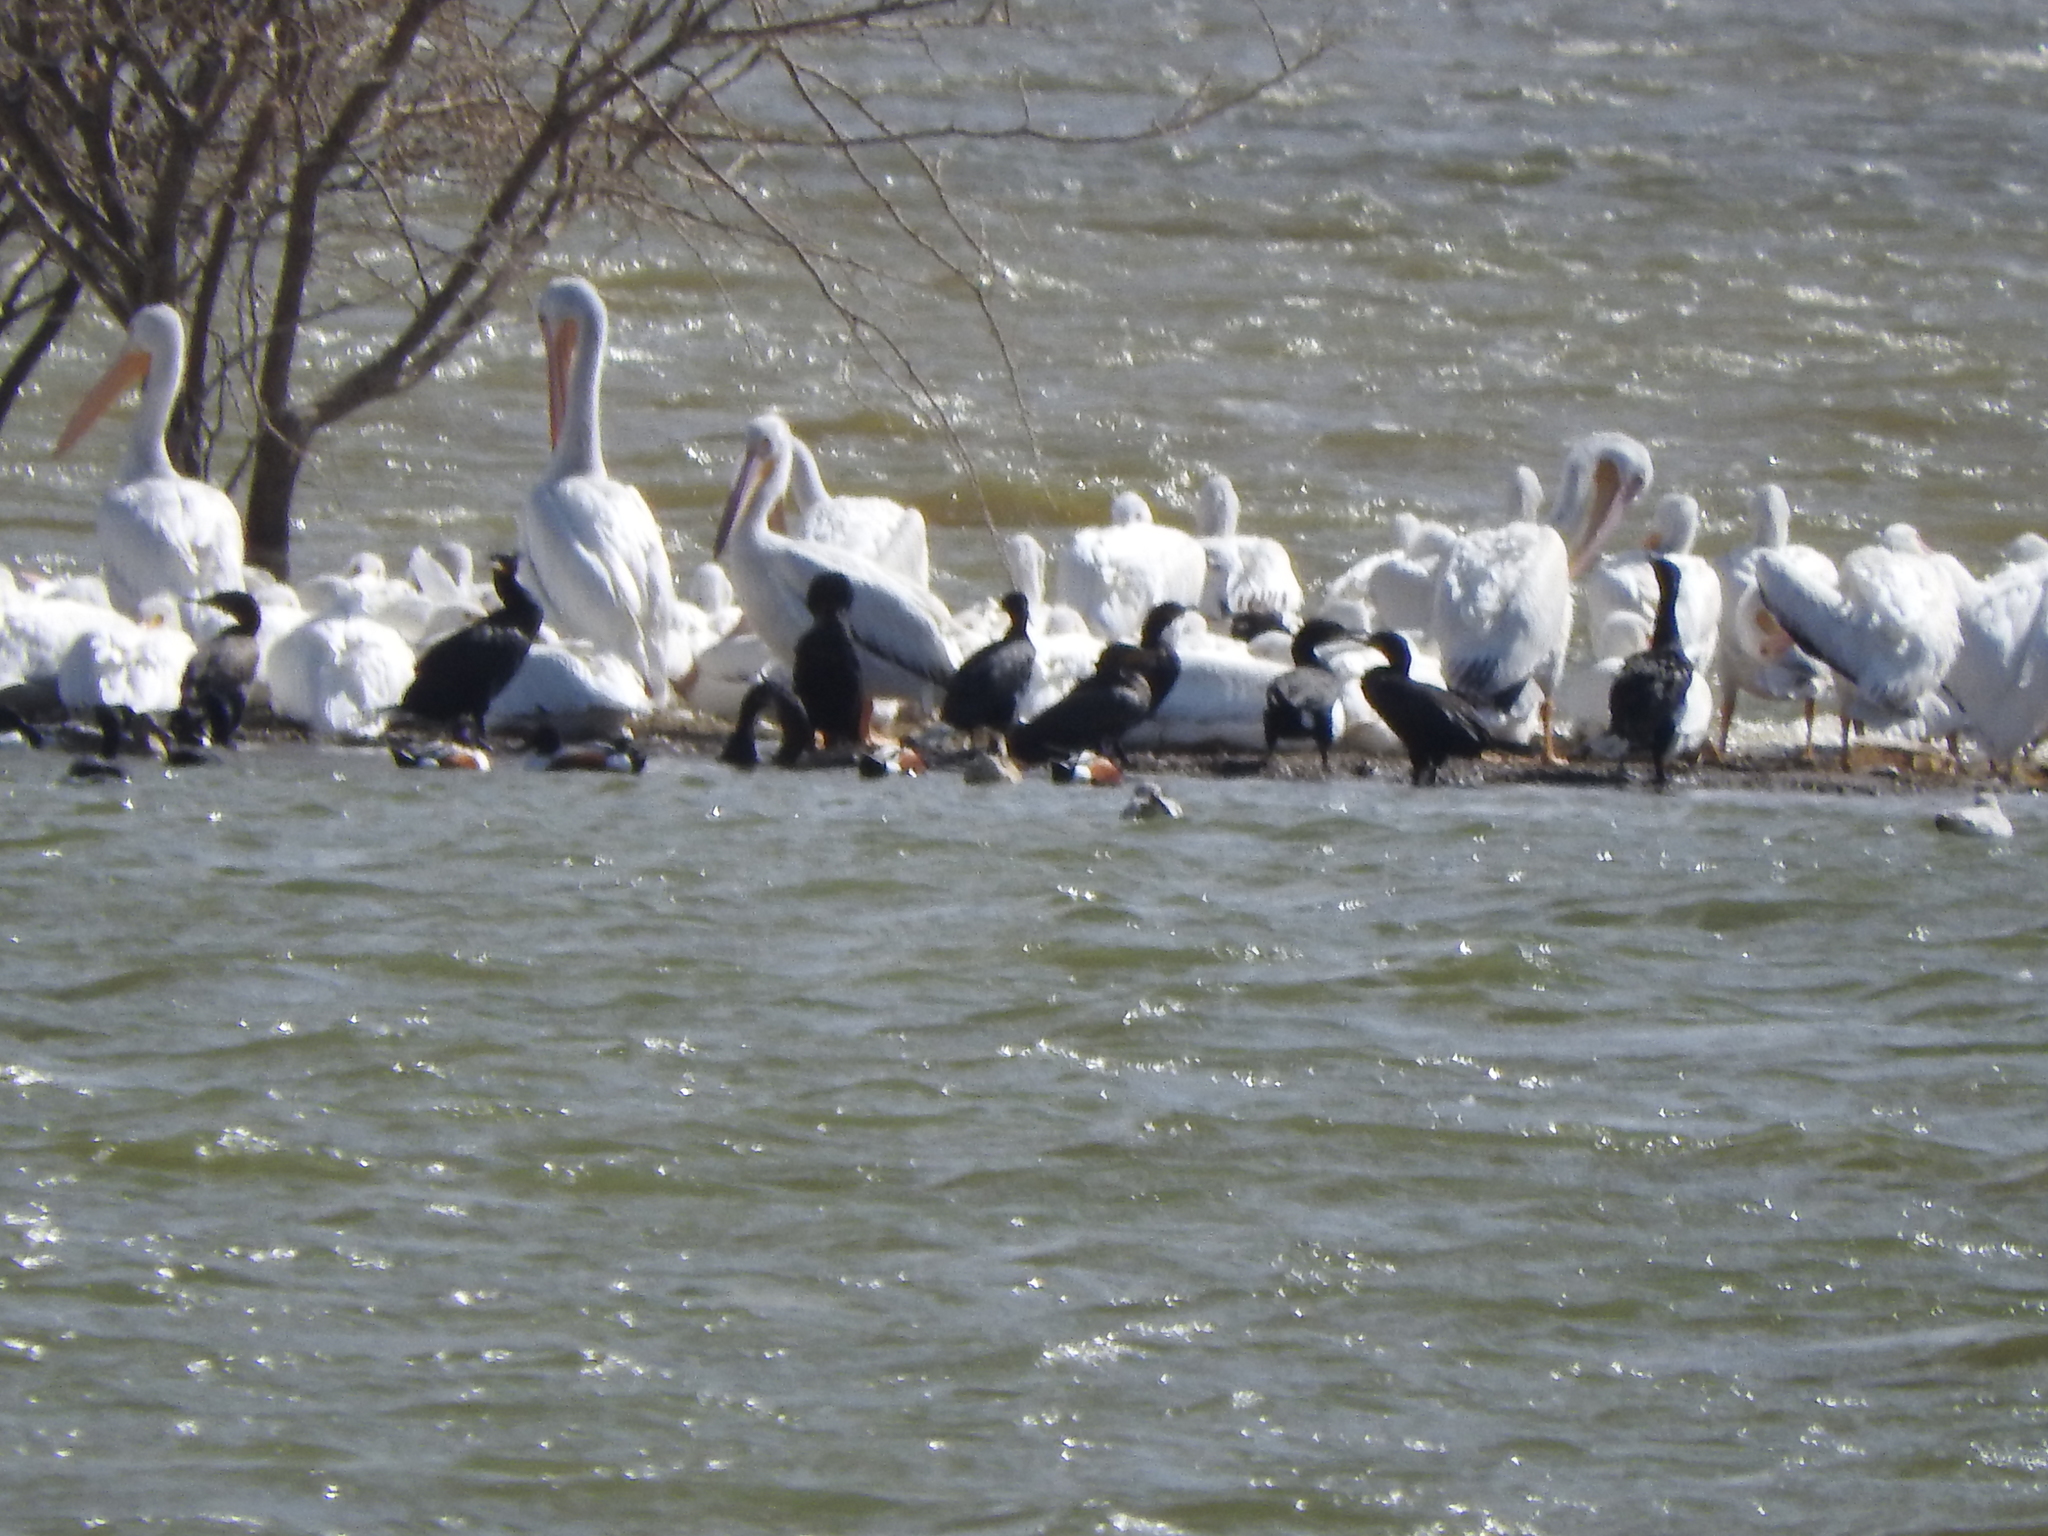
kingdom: Animalia
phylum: Chordata
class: Aves
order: Pelecaniformes
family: Pelecanidae
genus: Pelecanus
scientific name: Pelecanus erythrorhynchos
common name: American white pelican
